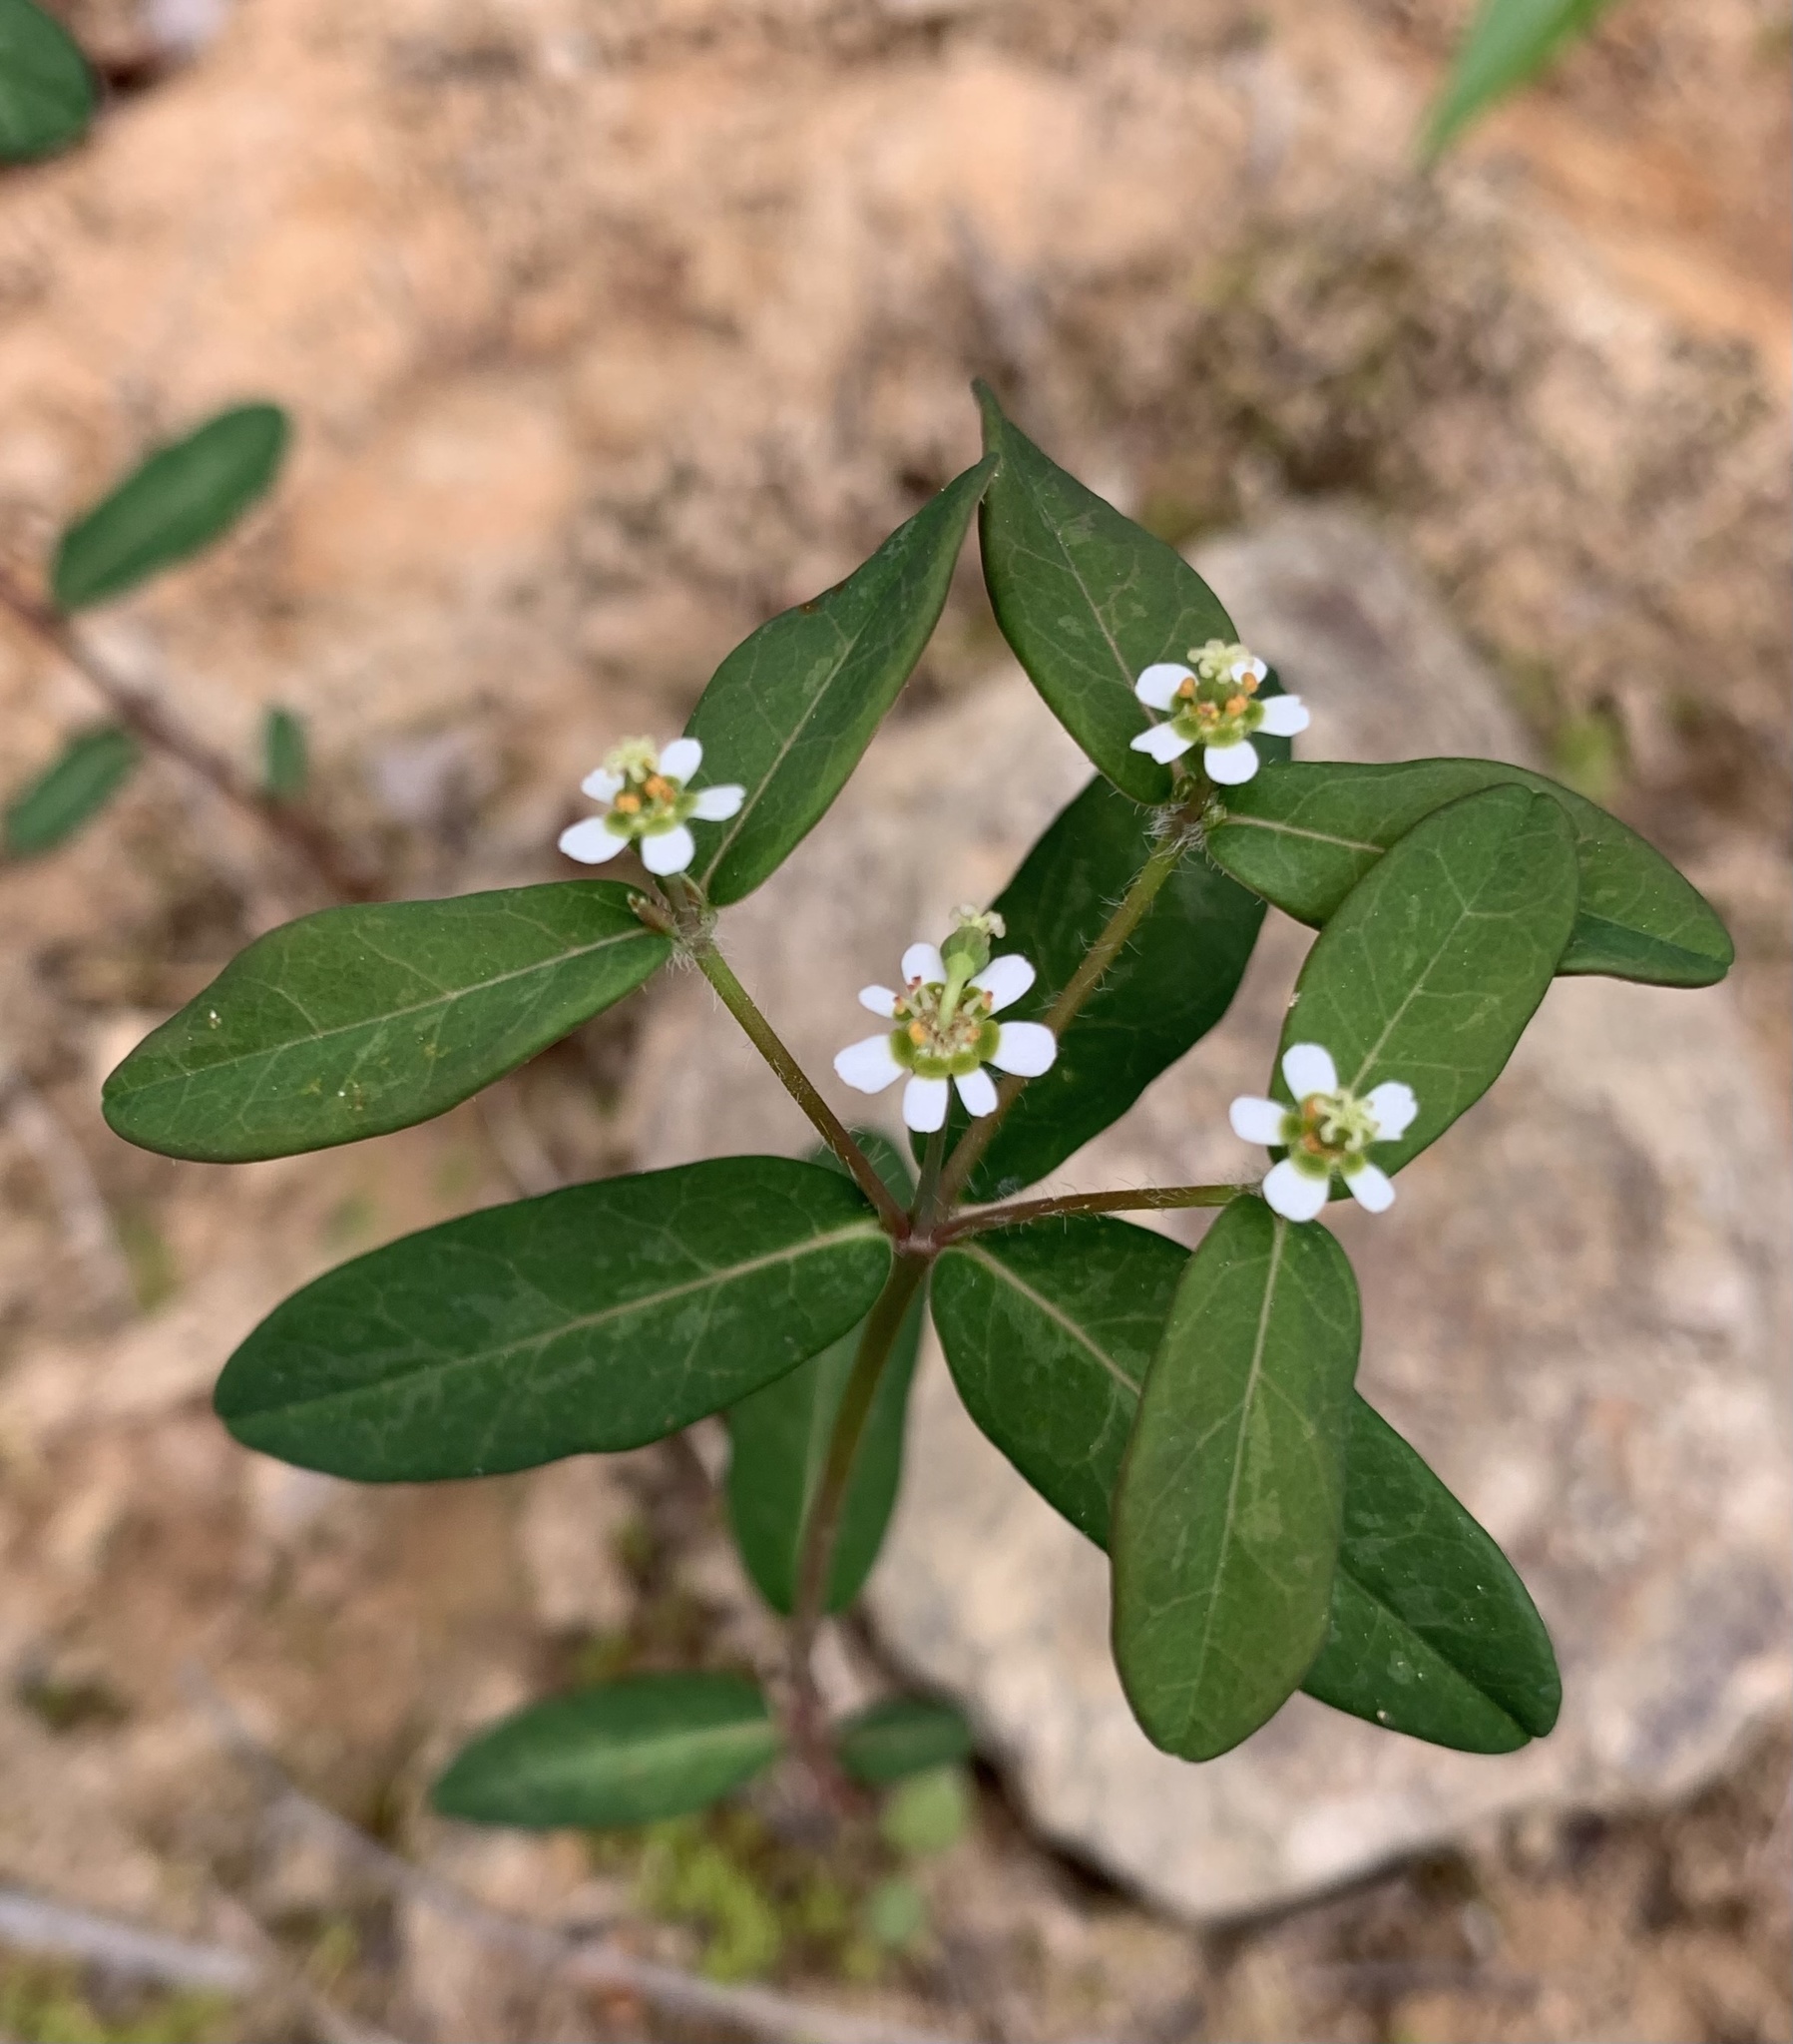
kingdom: Plantae
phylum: Tracheophyta
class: Magnoliopsida
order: Malpighiales
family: Euphorbiaceae
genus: Euphorbia
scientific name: Euphorbia pubentissima
